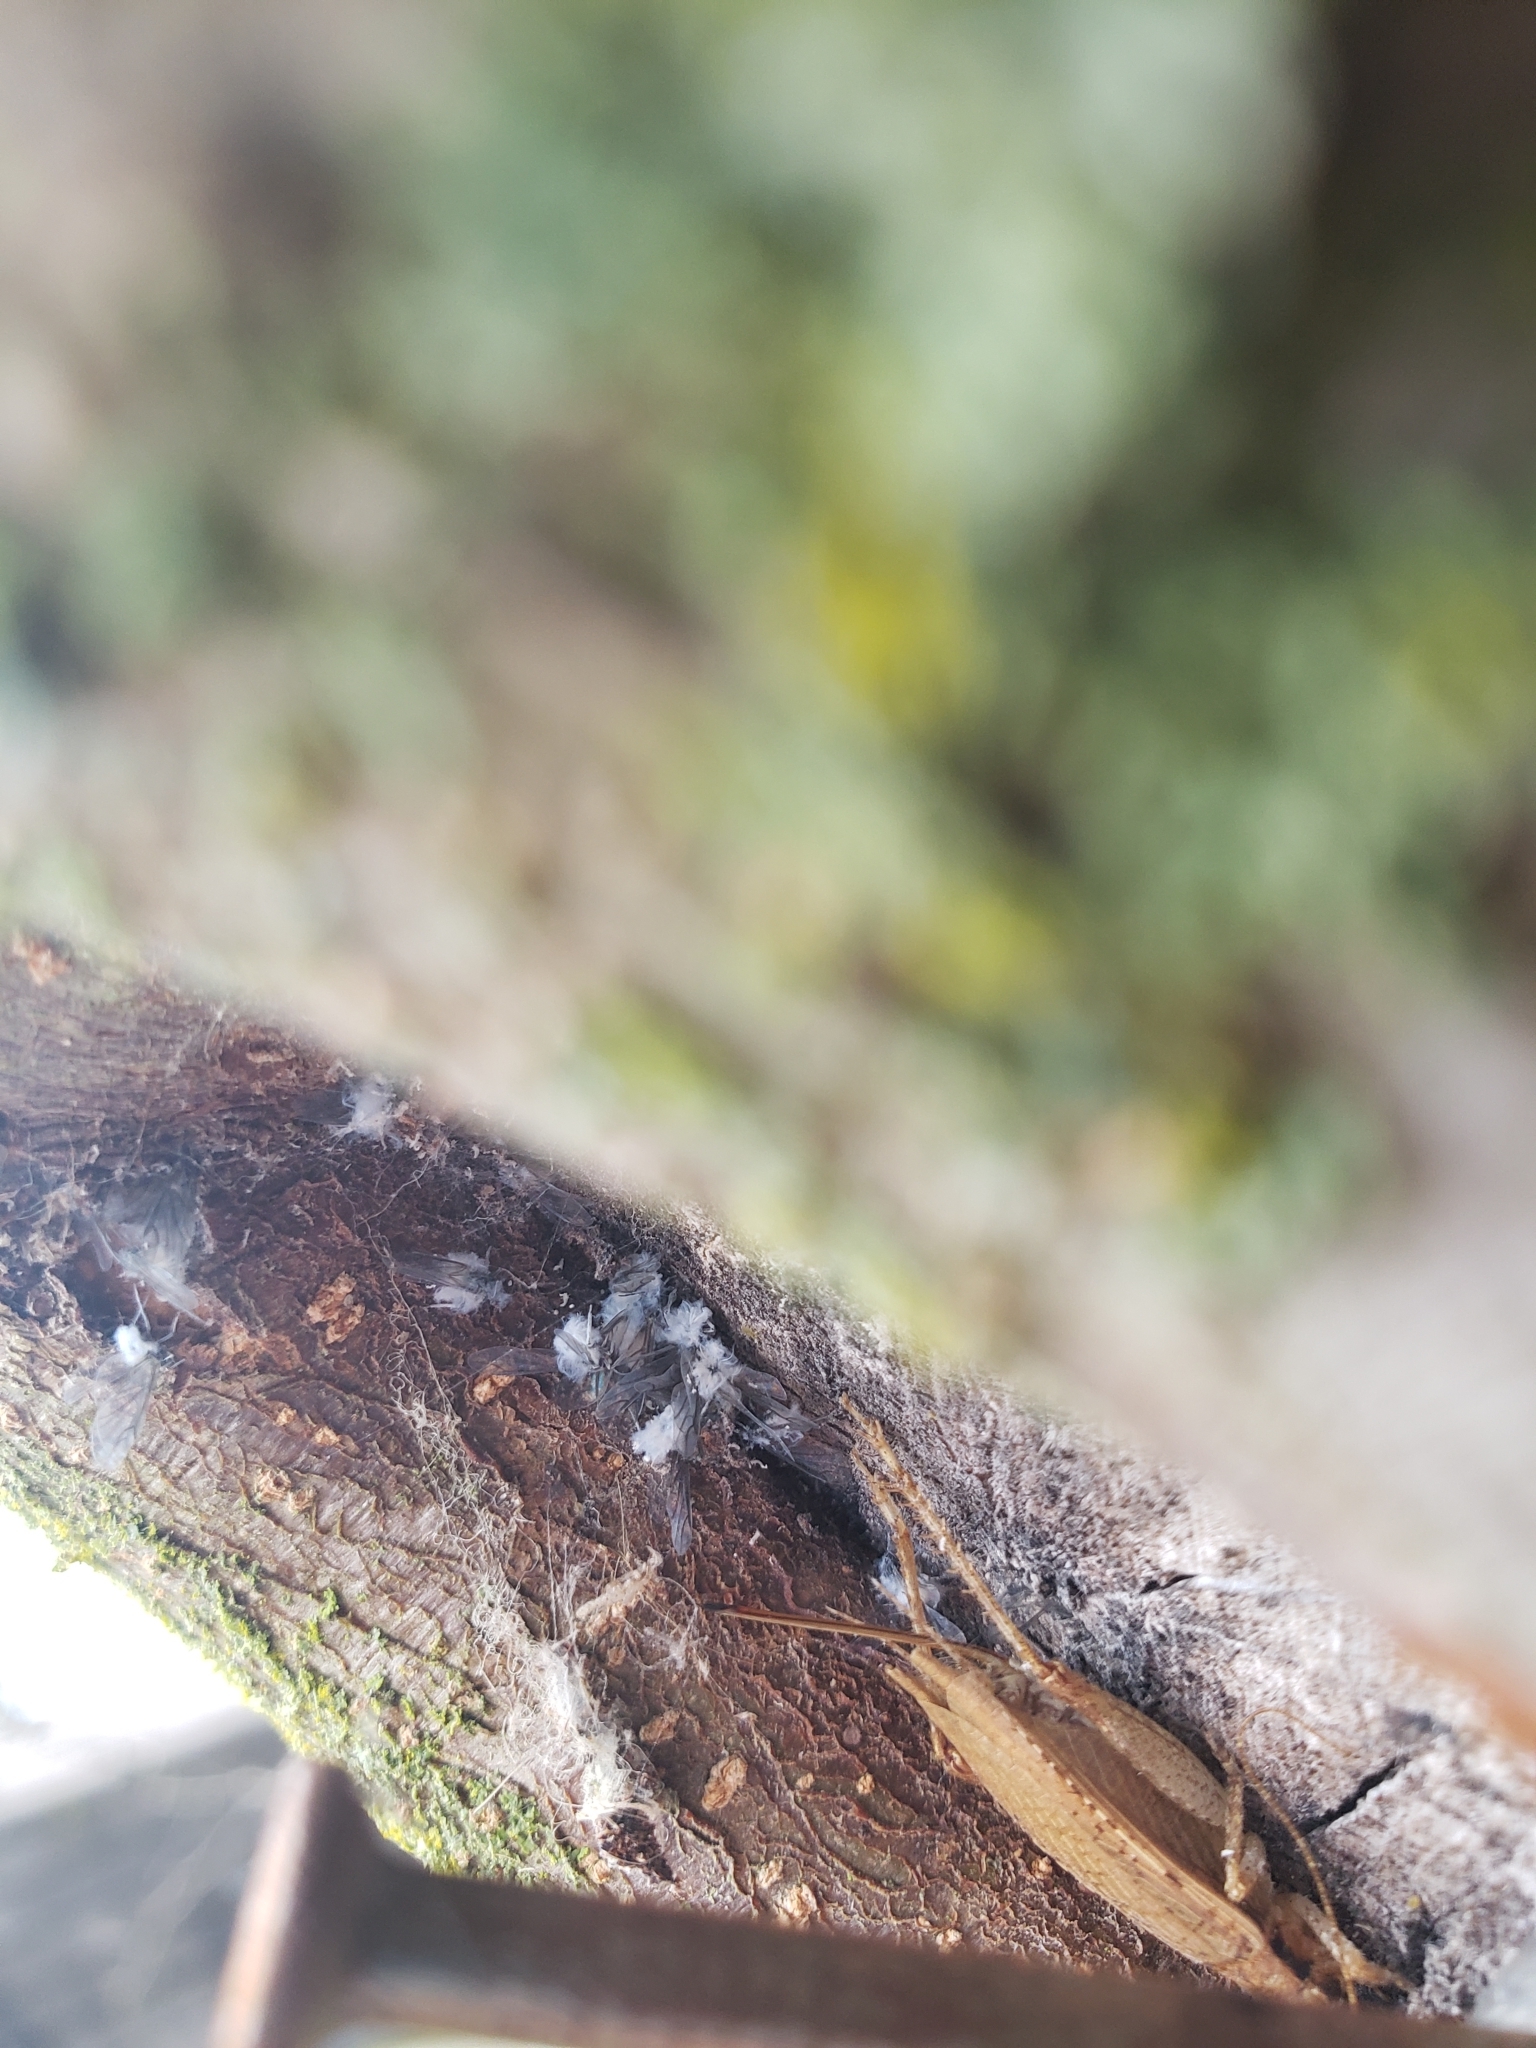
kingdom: Animalia
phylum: Arthropoda
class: Insecta
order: Orthoptera
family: Gryllidae
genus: Hapithus
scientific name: Hapithus saltator
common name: Jumping bush cricket
